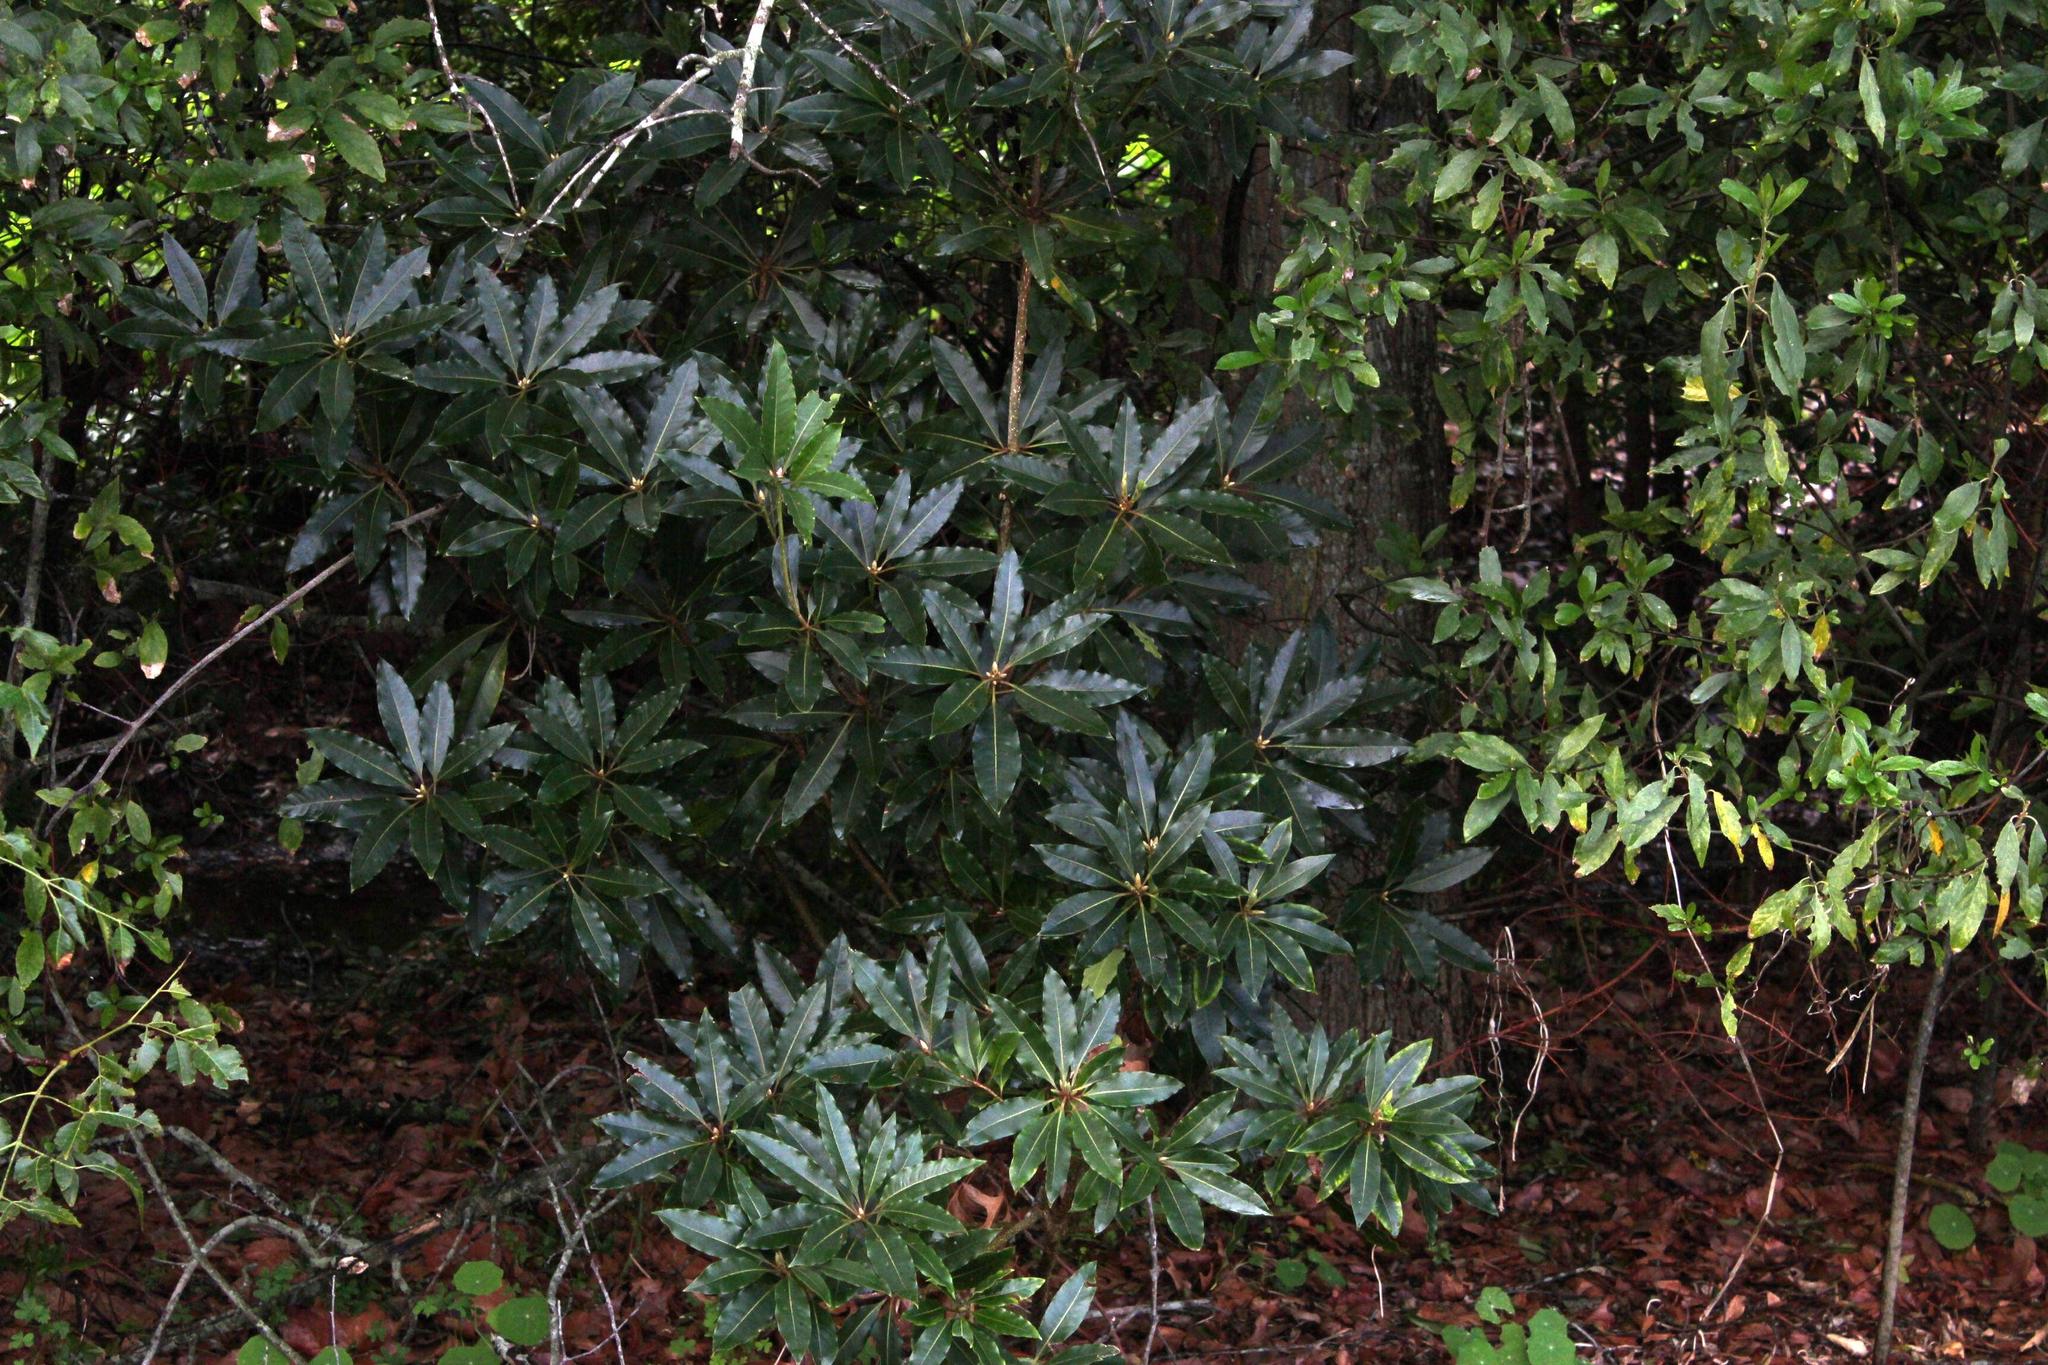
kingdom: Plantae
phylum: Tracheophyta
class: Magnoliopsida
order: Apiales
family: Pittosporaceae
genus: Pittosporum
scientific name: Pittosporum undulatum
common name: Australian cheesewood
